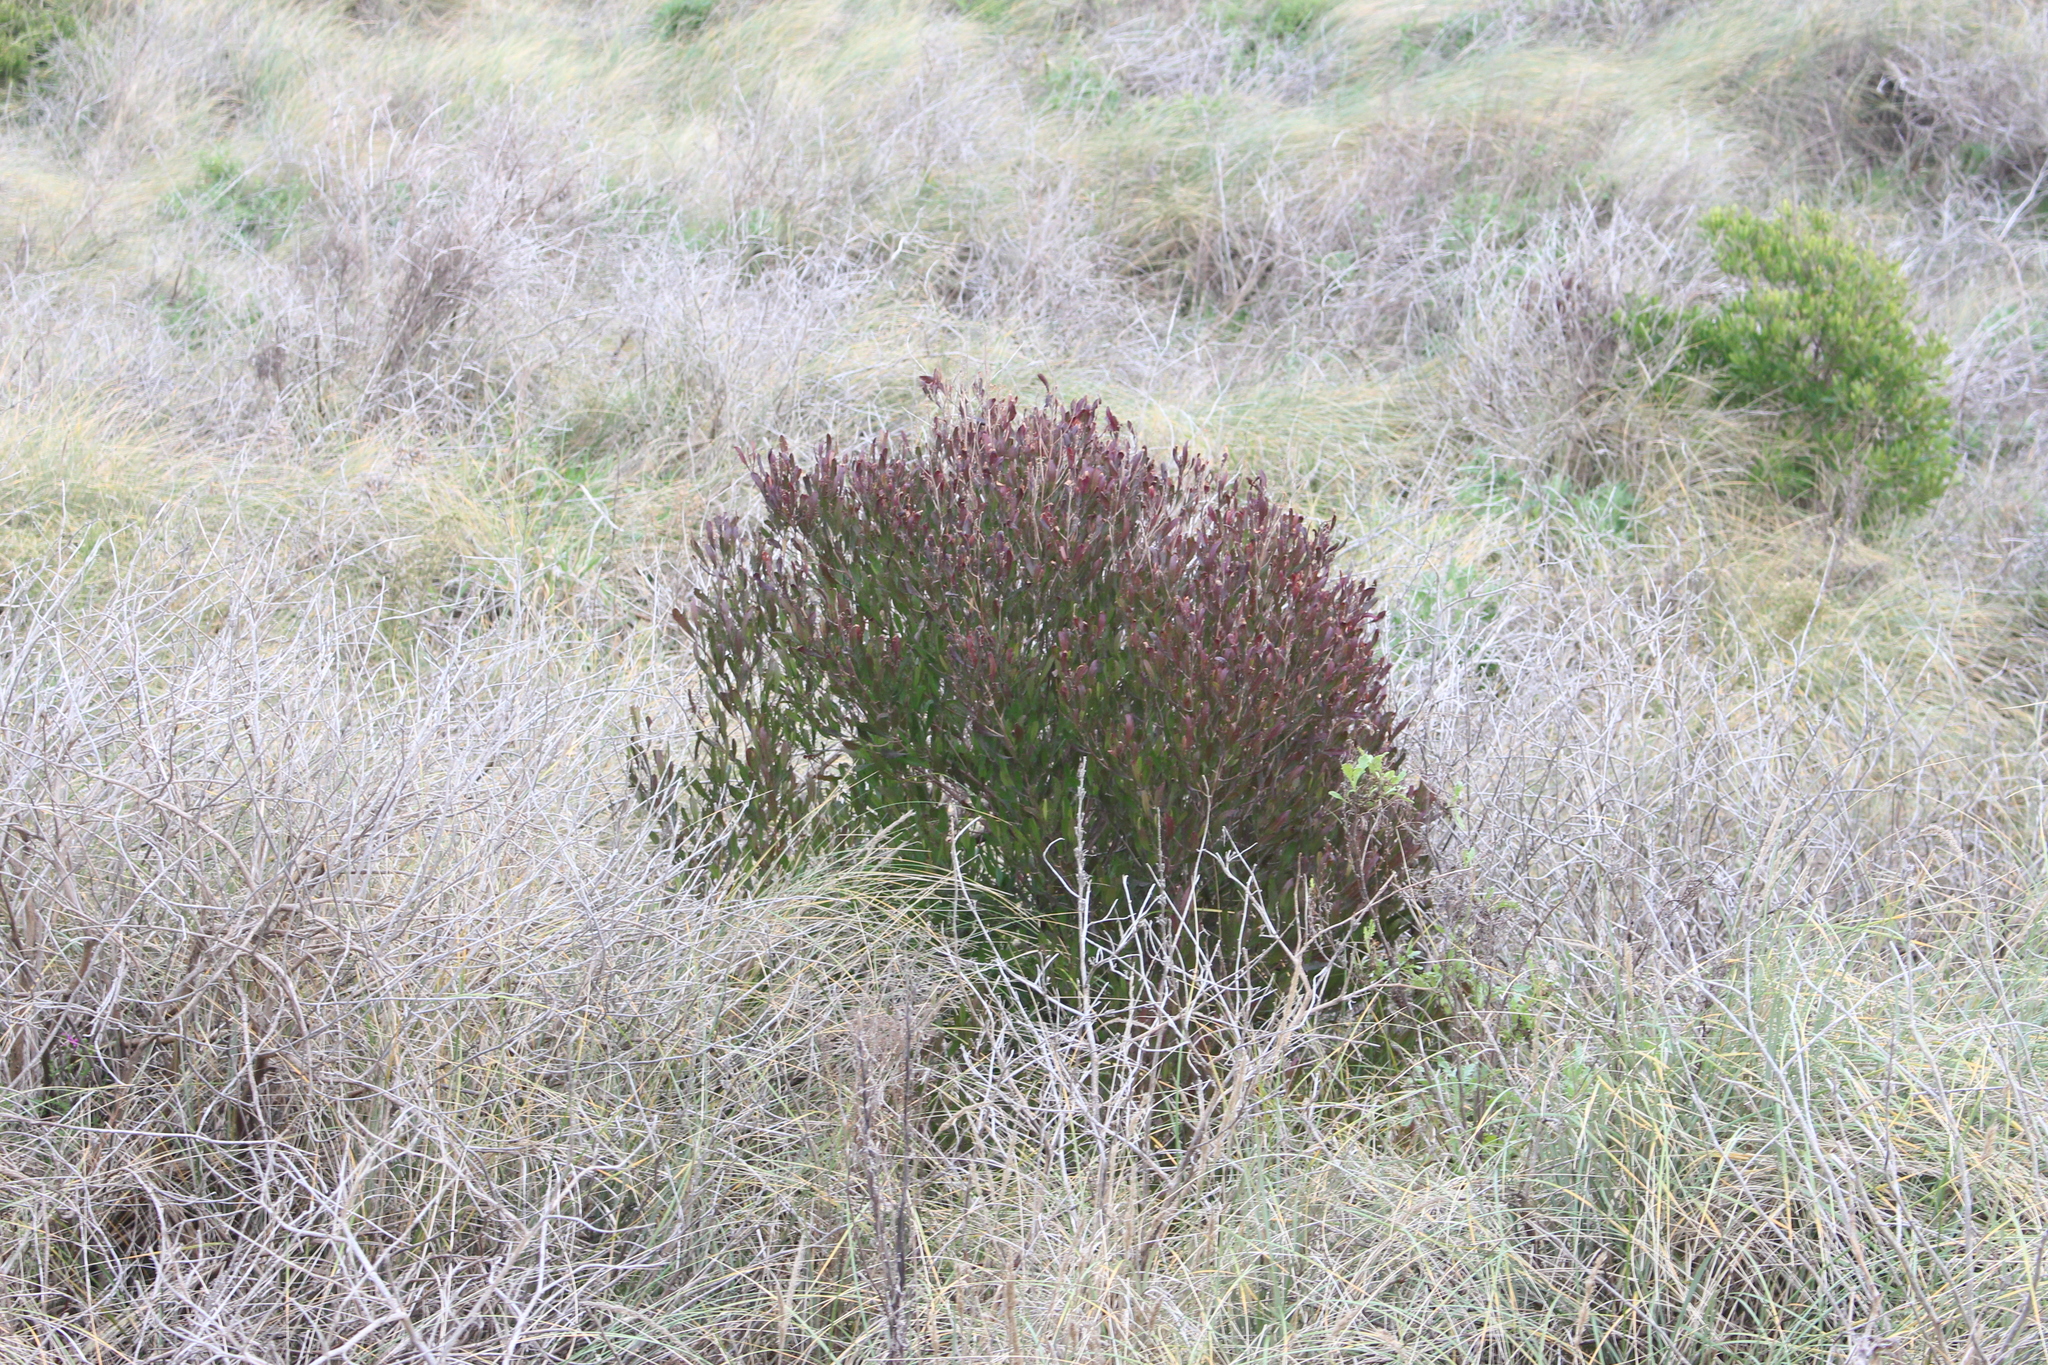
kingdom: Plantae
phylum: Tracheophyta
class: Magnoliopsida
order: Sapindales
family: Sapindaceae
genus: Dodonaea
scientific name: Dodonaea viscosa
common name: Hopbush
